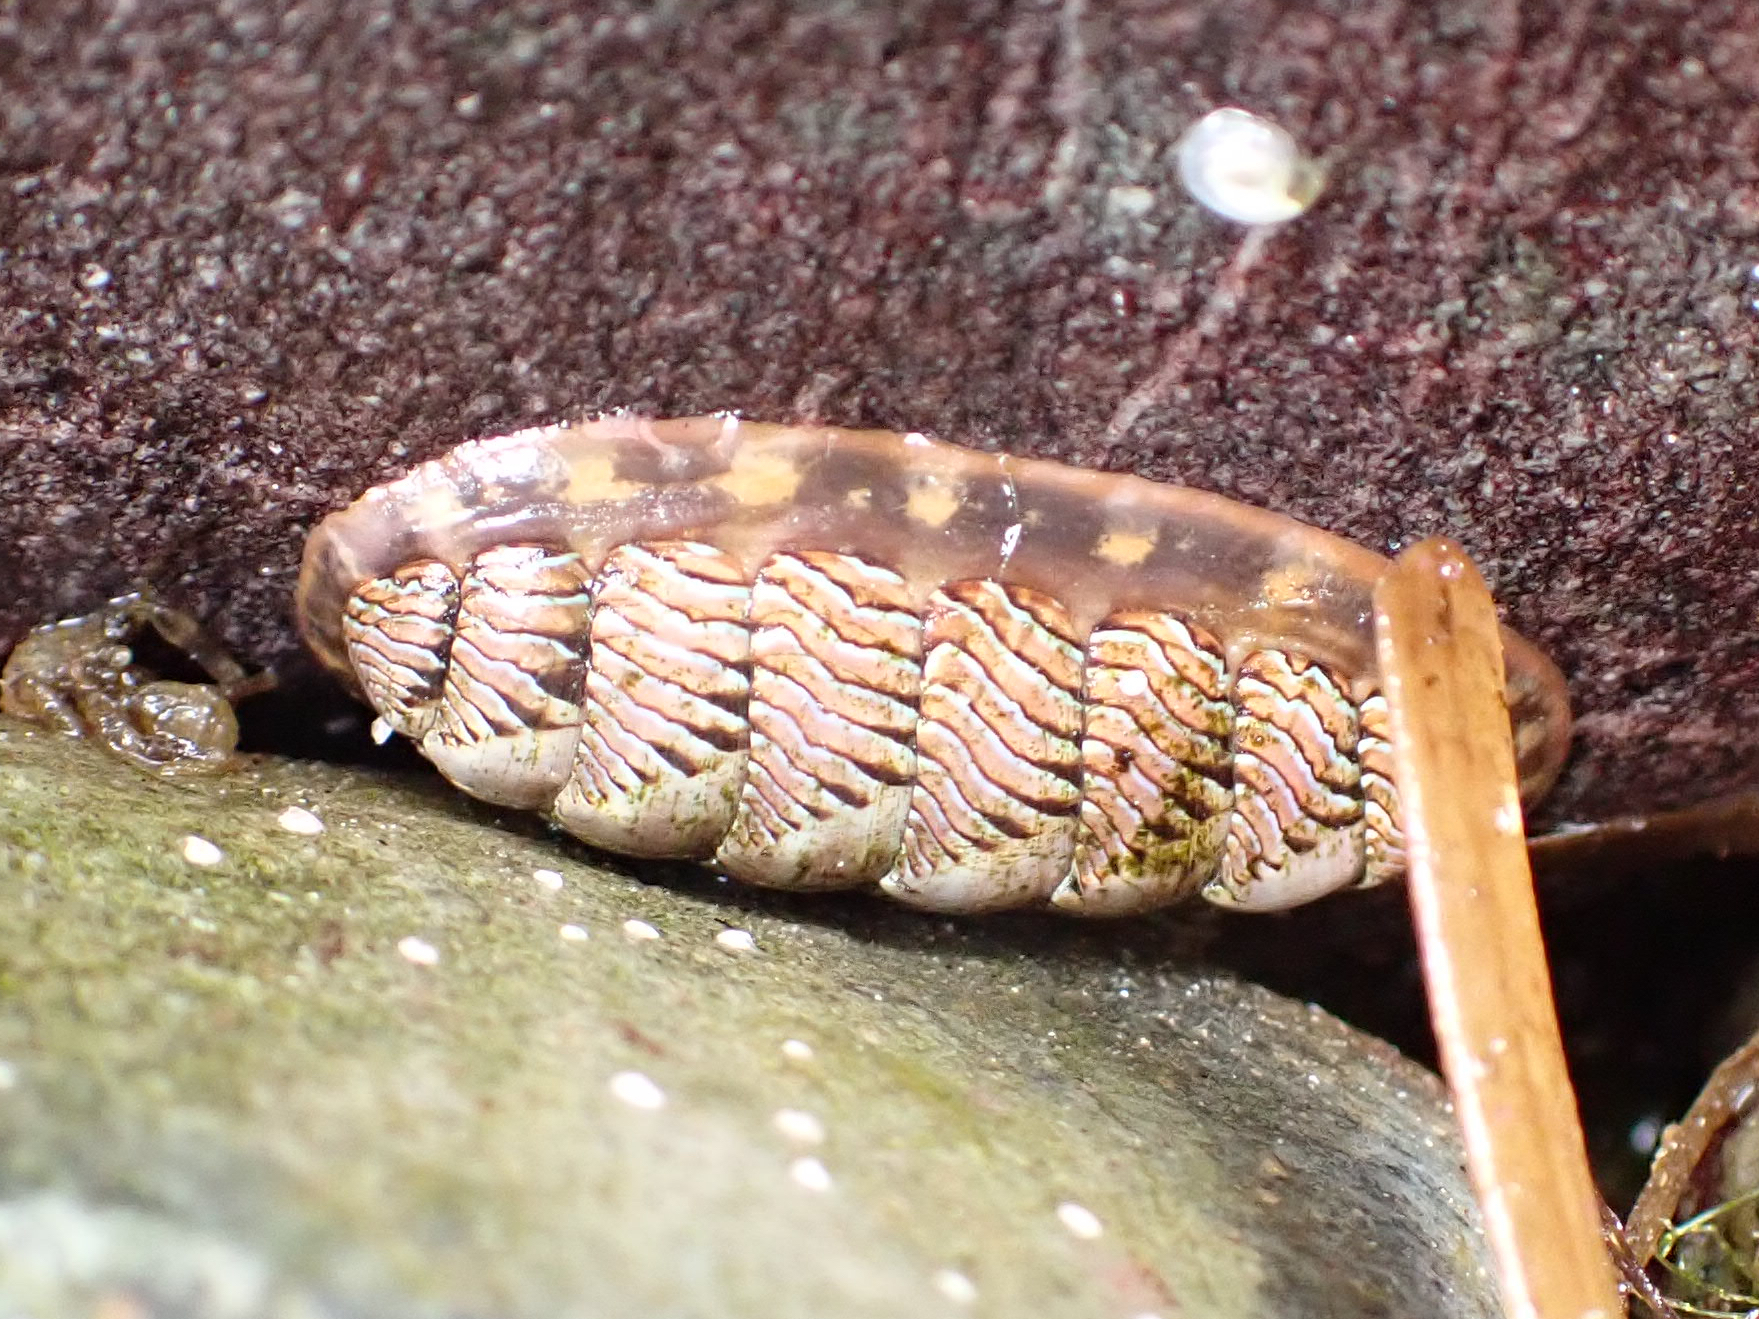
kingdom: Animalia
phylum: Mollusca
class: Polyplacophora
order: Chitonida
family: Tonicellidae
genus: Tonicella
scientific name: Tonicella lineata
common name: Lined chiton
